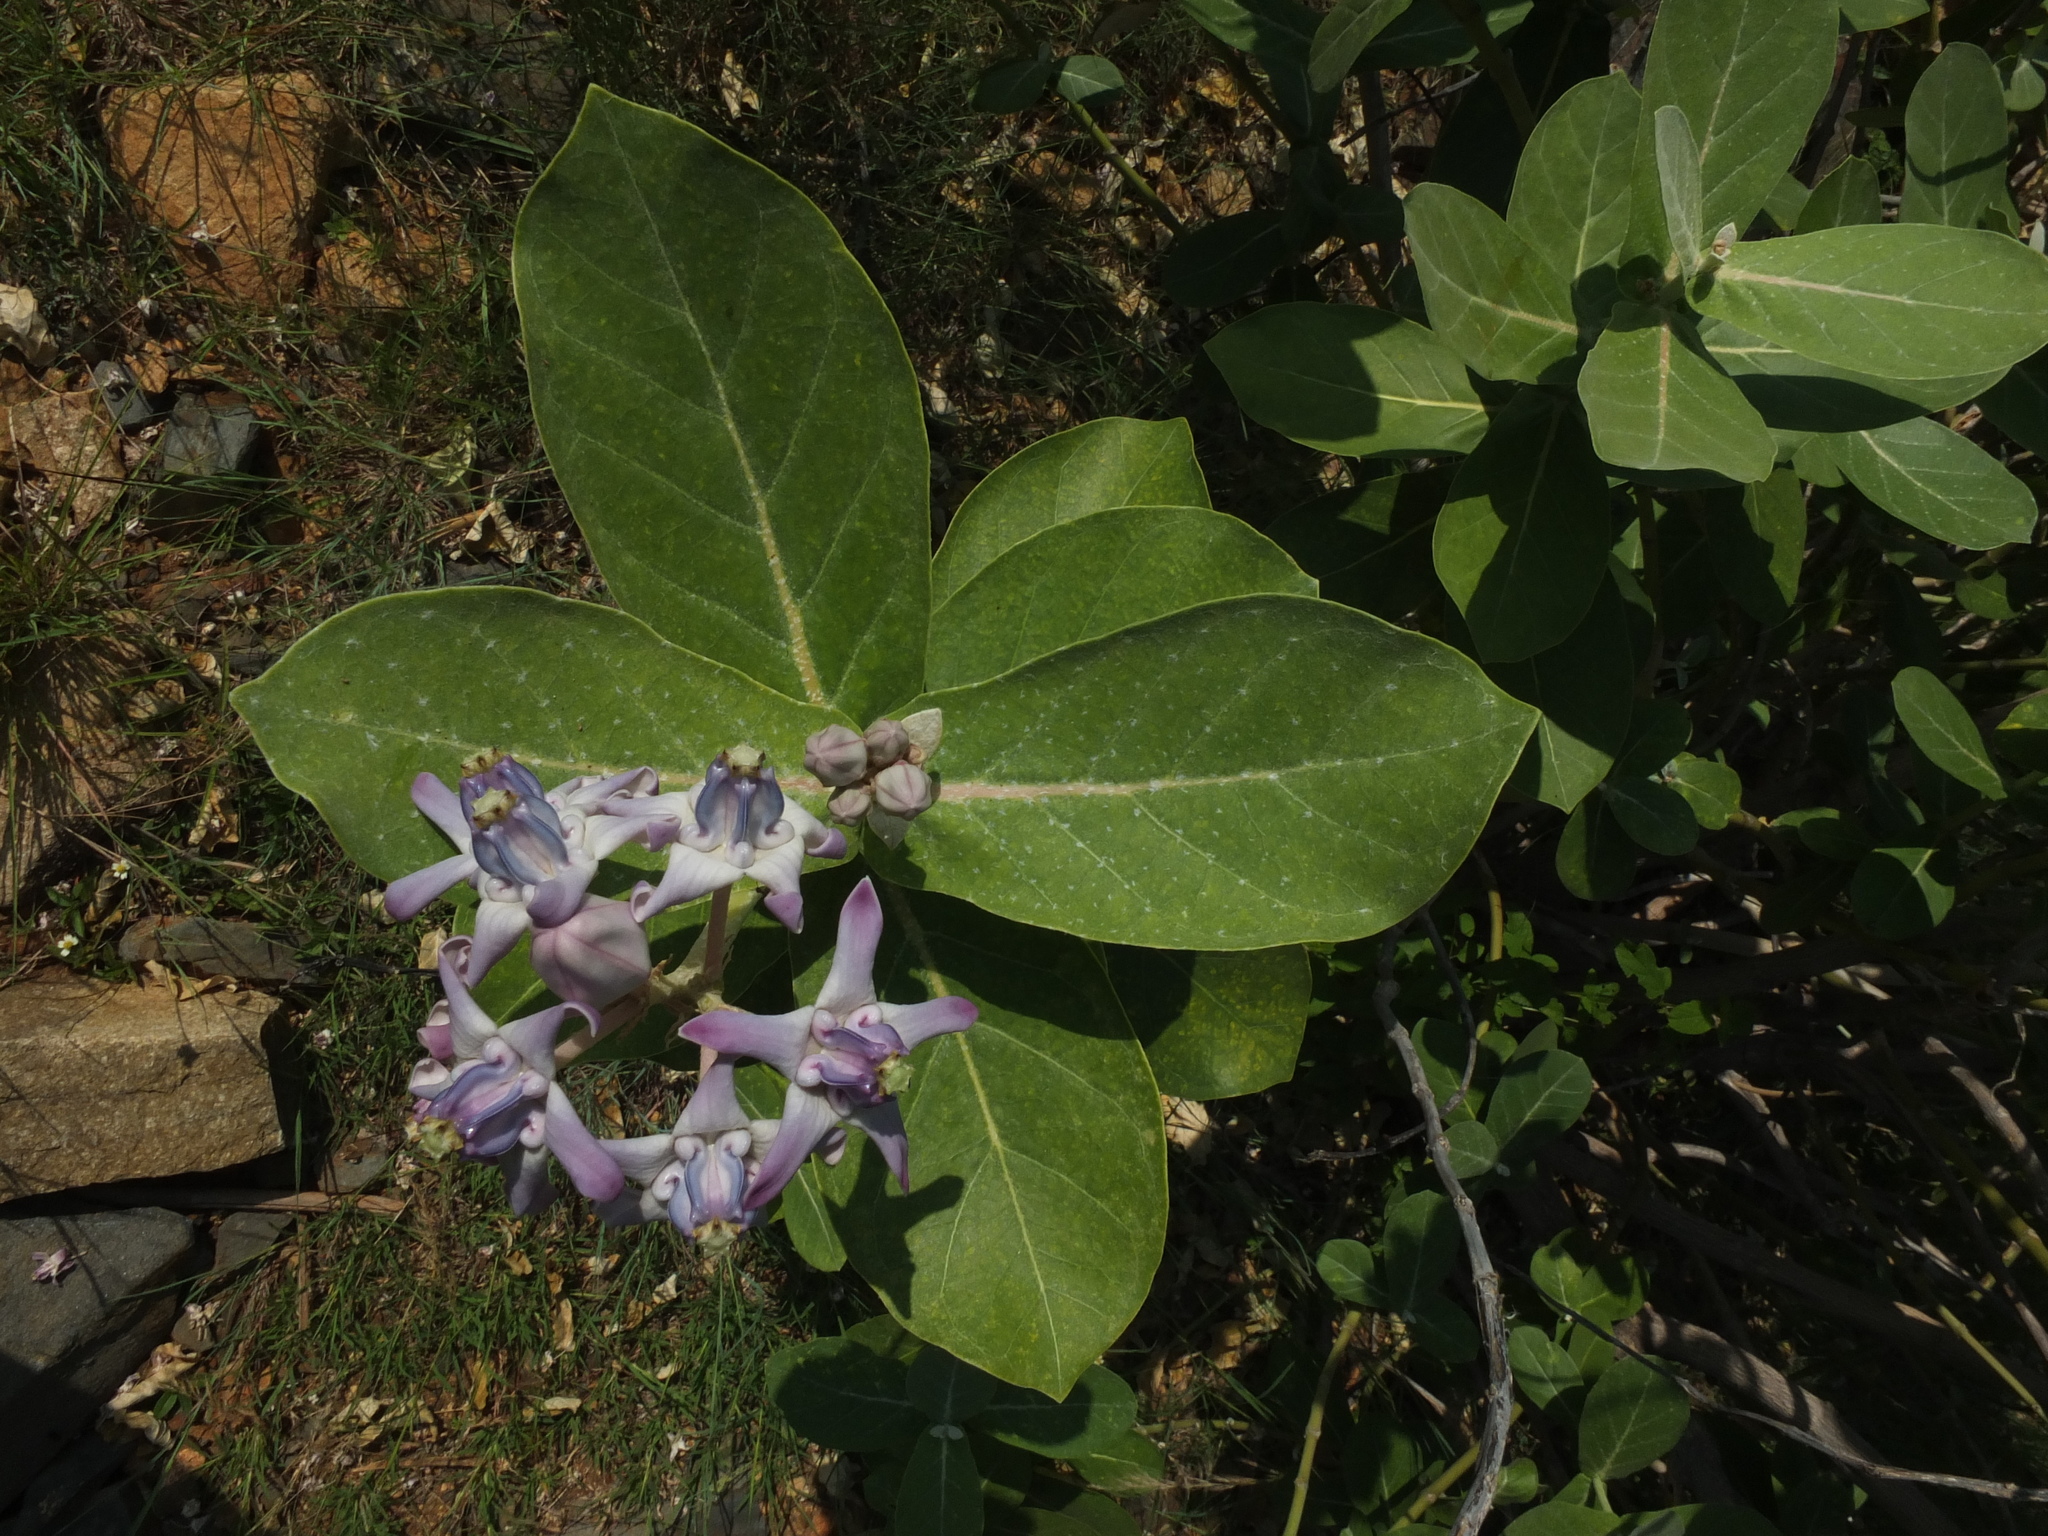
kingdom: Plantae
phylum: Tracheophyta
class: Magnoliopsida
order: Gentianales
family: Apocynaceae
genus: Calotropis
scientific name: Calotropis gigantea
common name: Crown flower
